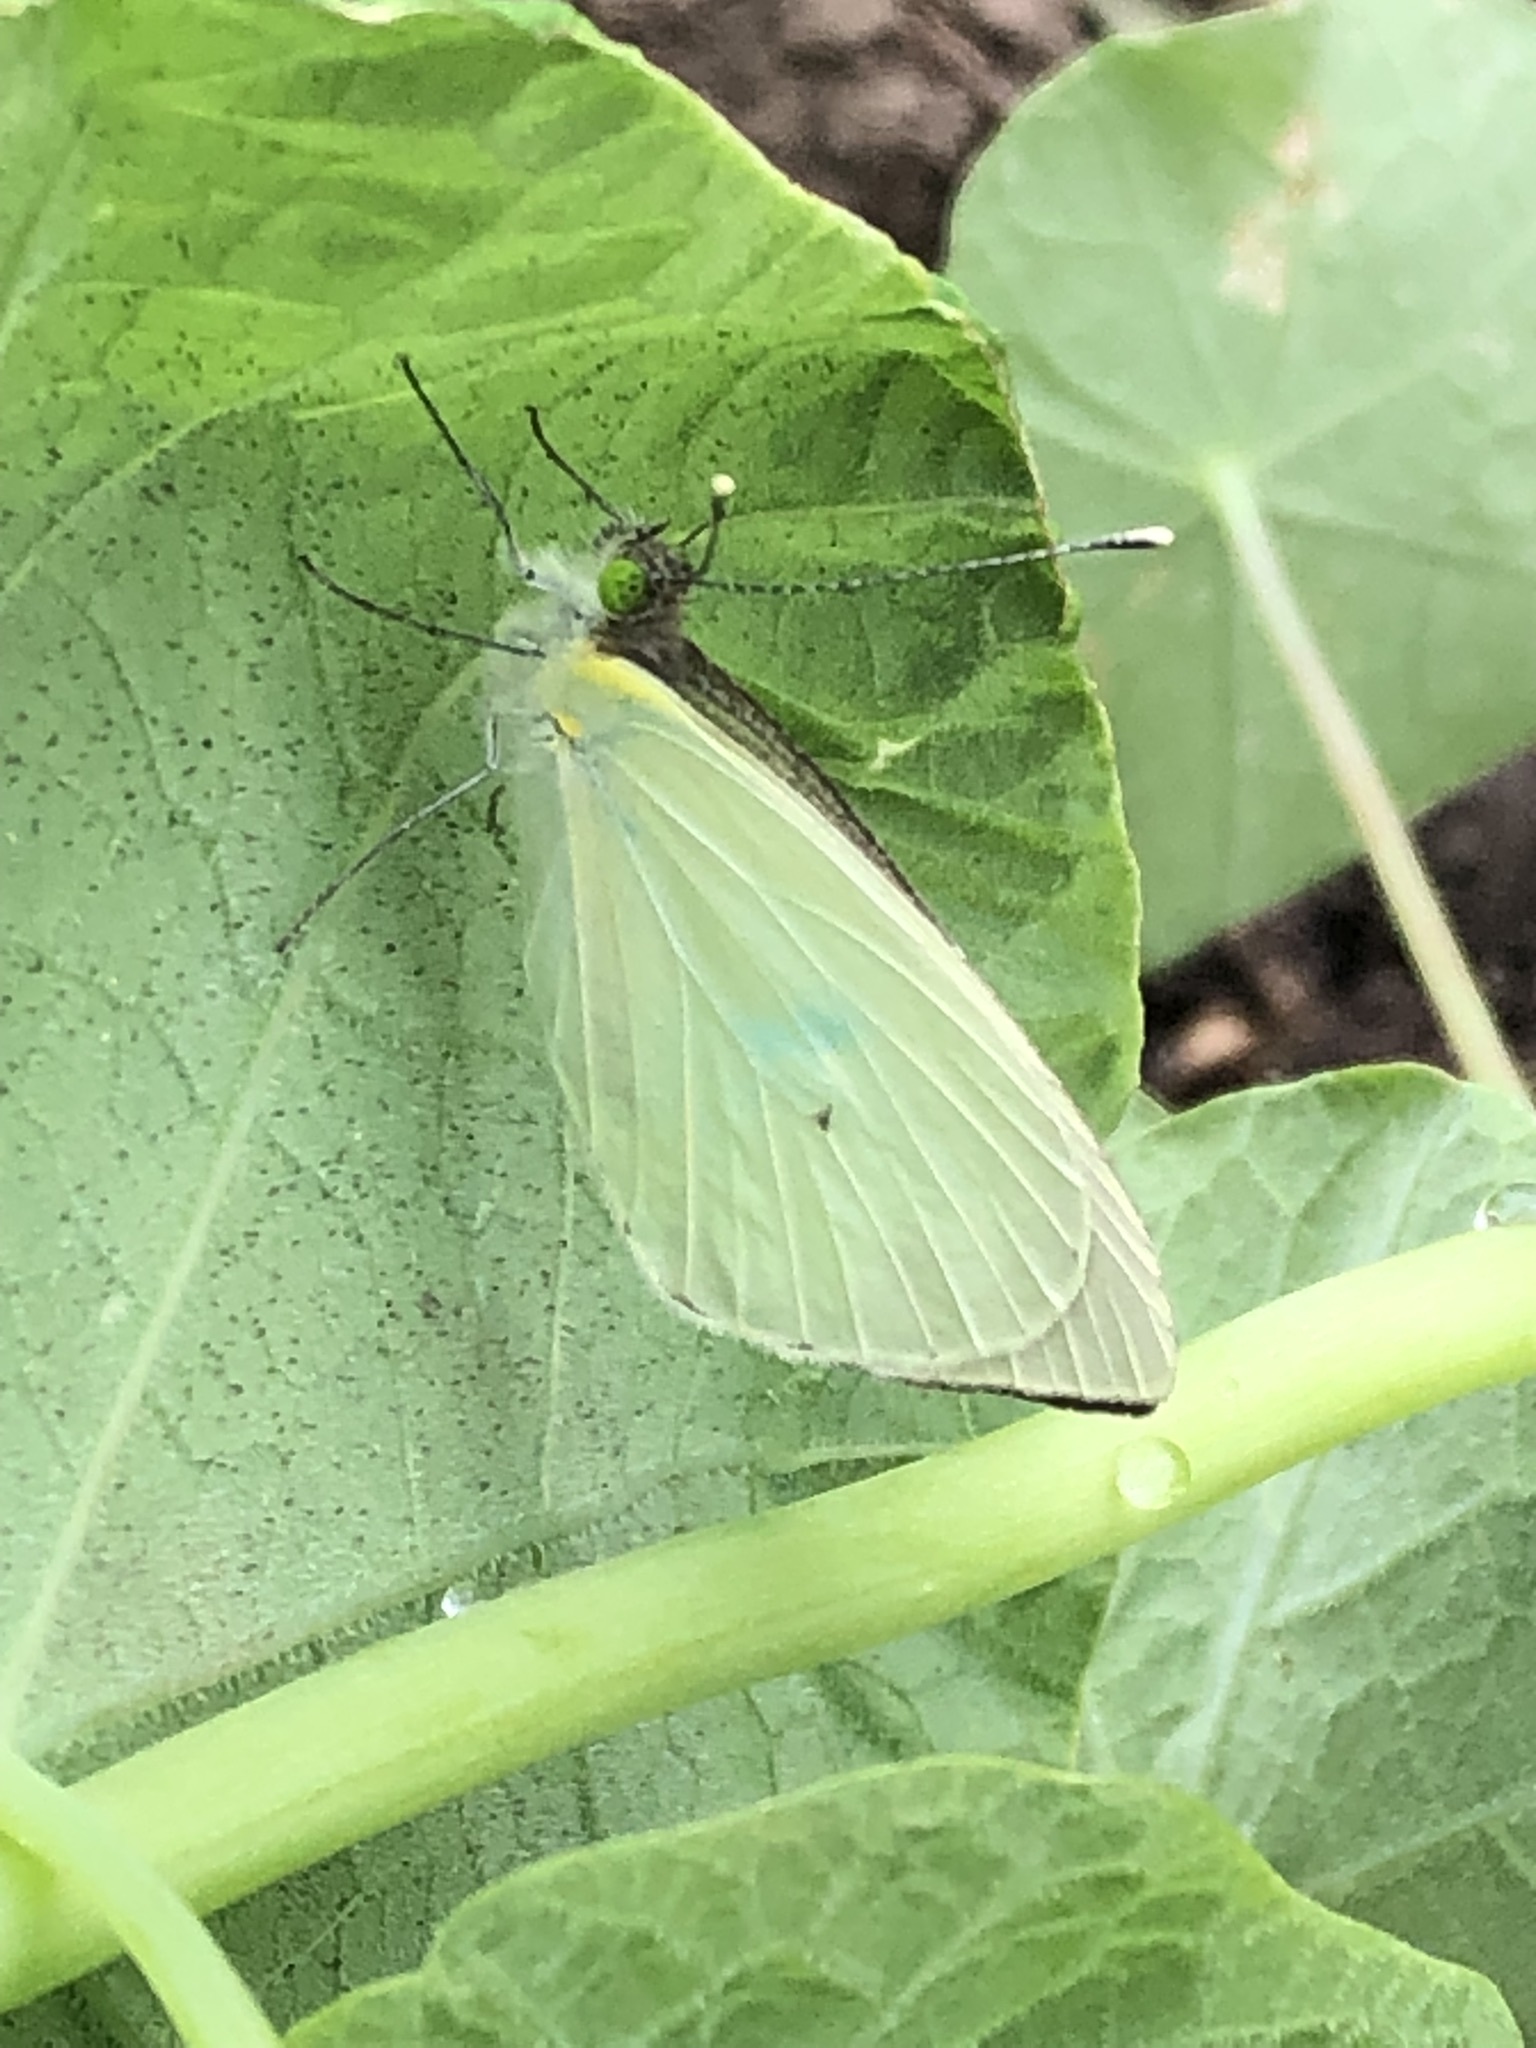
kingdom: Animalia
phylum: Arthropoda
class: Insecta
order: Lepidoptera
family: Pieridae
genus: Leptophobia
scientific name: Leptophobia aripa
